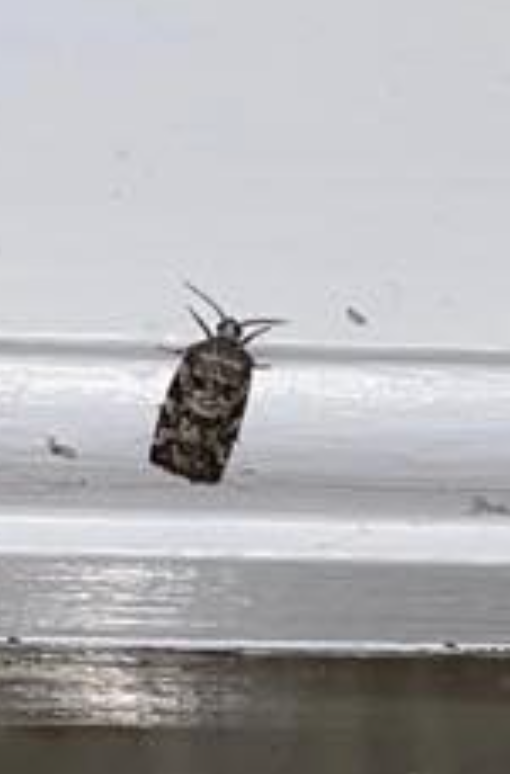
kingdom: Animalia
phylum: Arthropoda
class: Insecta
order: Lepidoptera
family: Tortricidae
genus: Archips
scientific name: Archips packardiana
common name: Spring spruce needle moth
